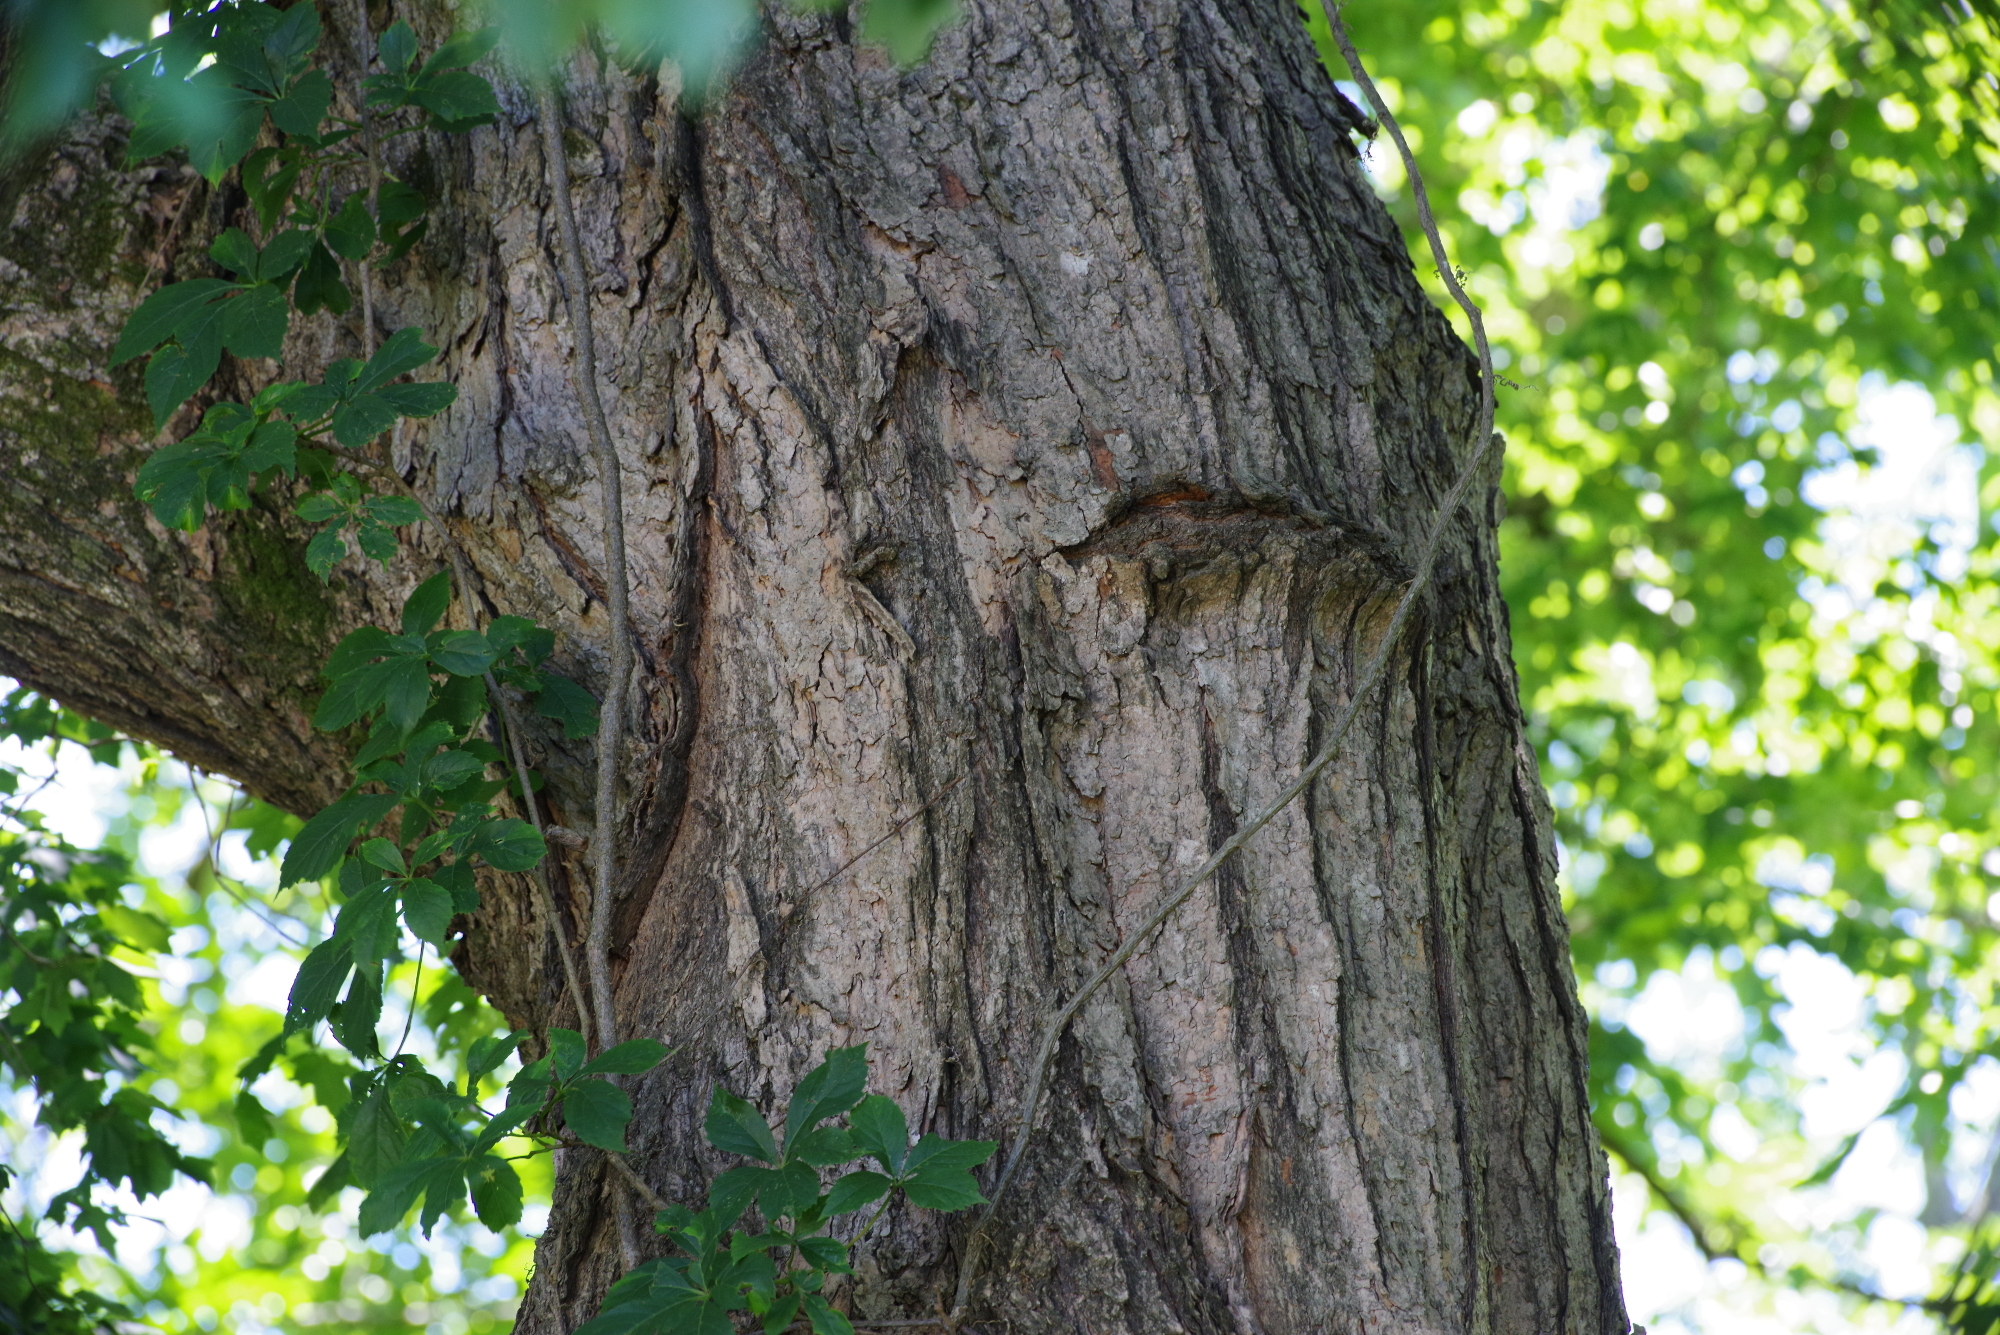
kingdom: Plantae
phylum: Tracheophyta
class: Magnoliopsida
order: Sapindales
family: Sapindaceae
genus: Acer
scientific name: Acer floridanum
